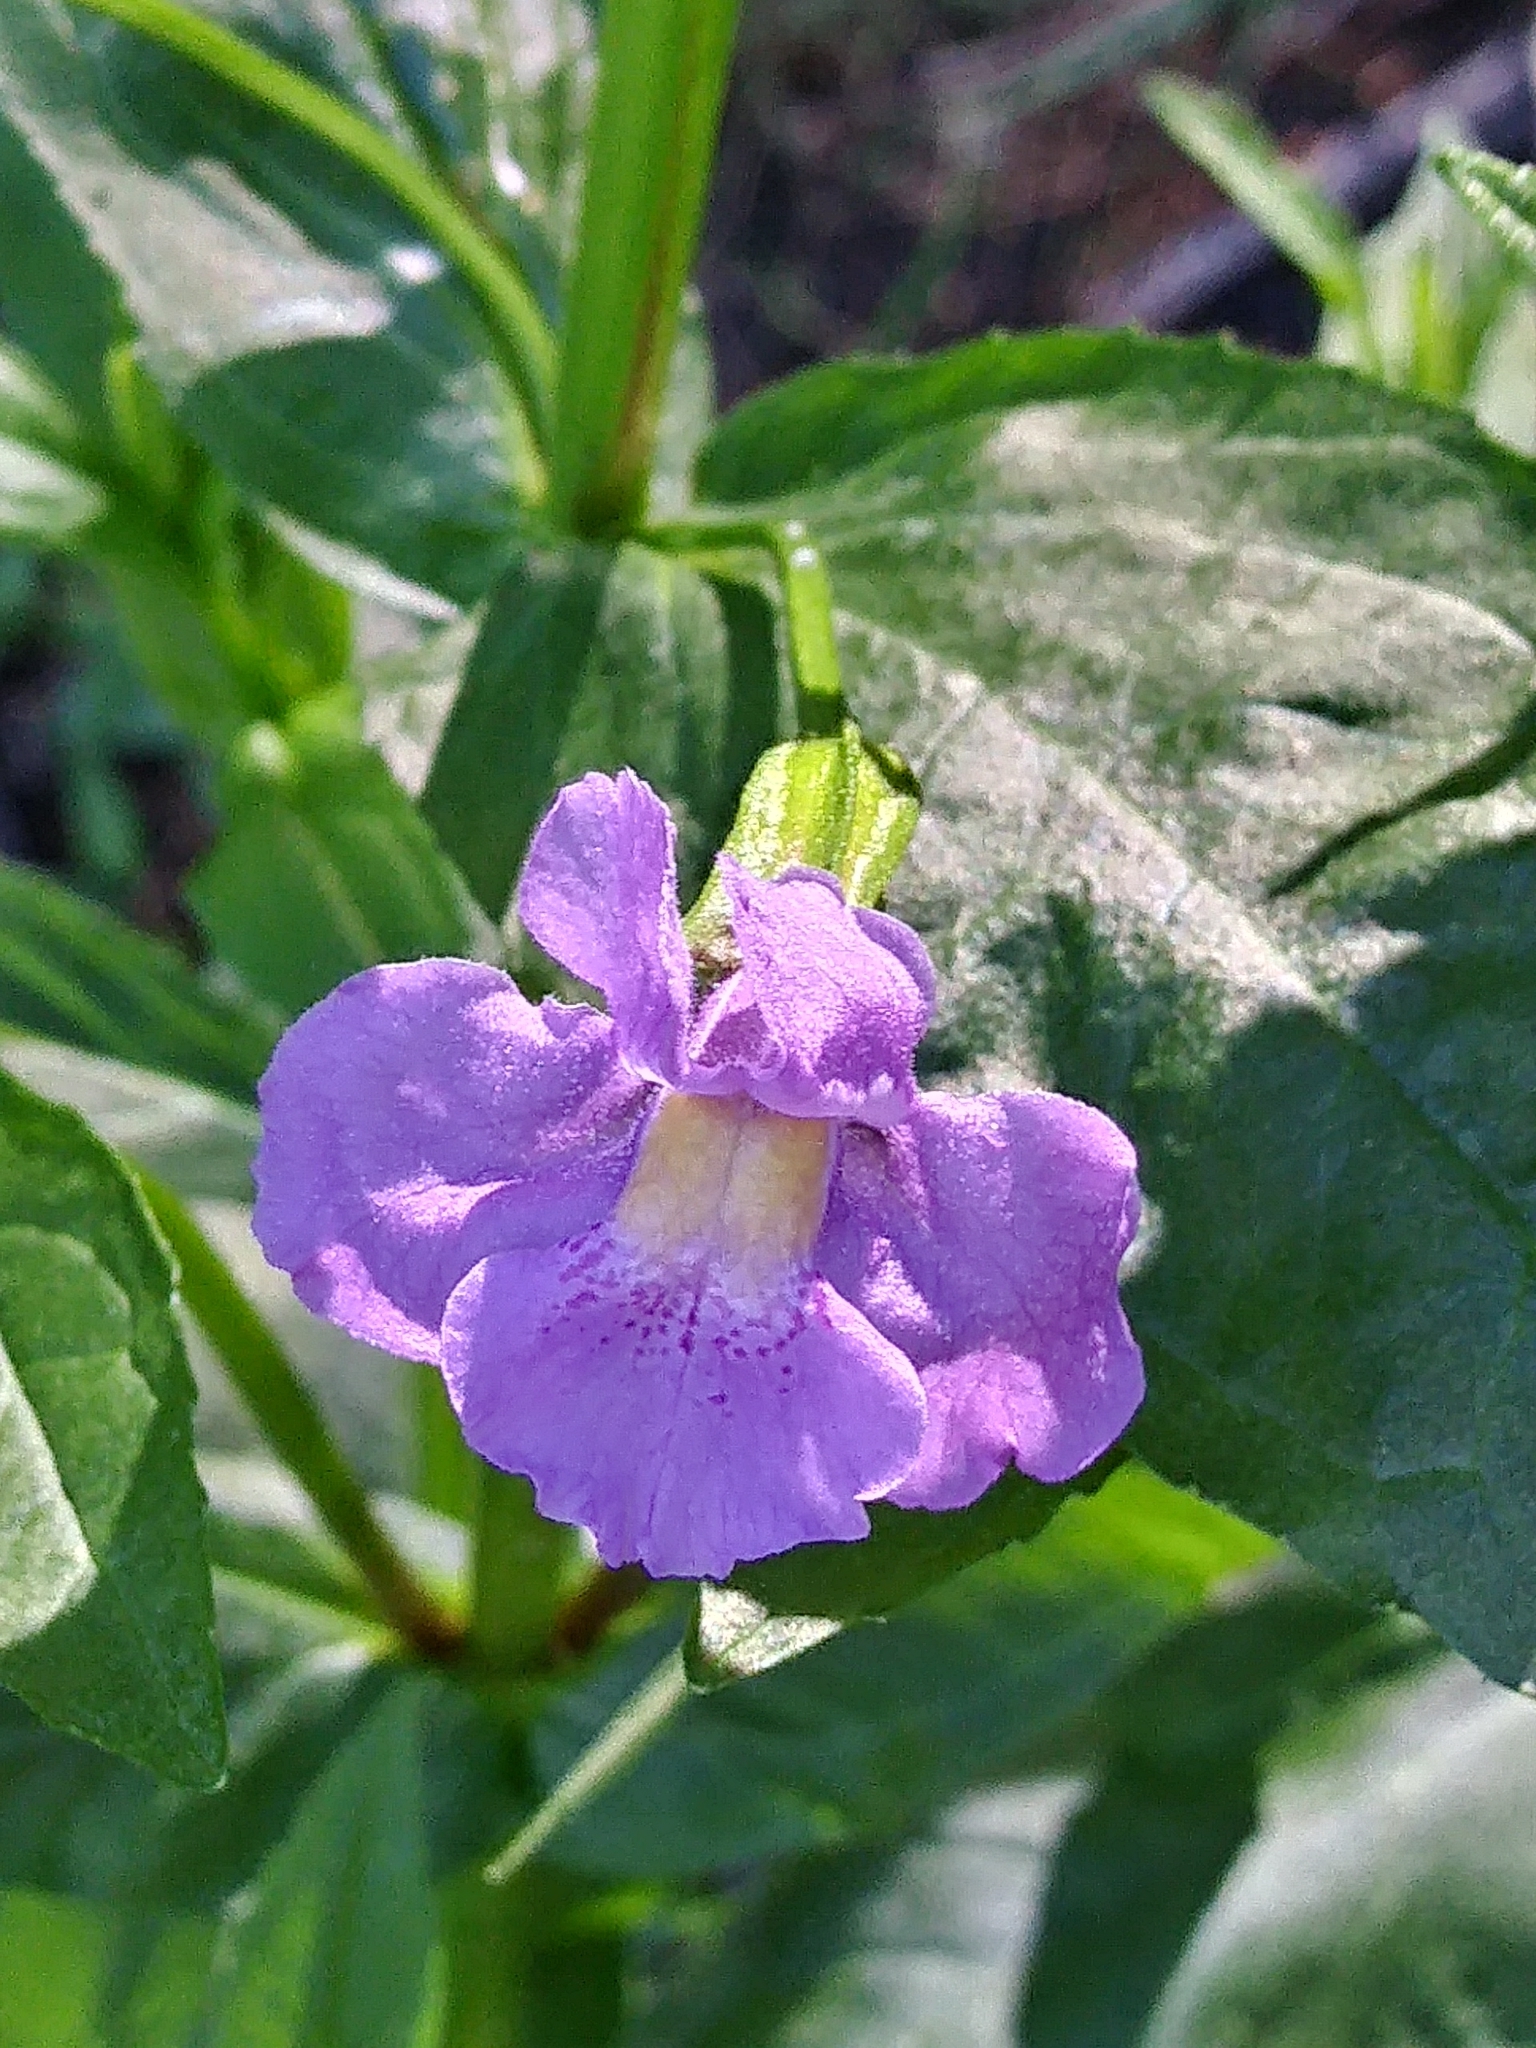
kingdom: Plantae
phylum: Tracheophyta
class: Magnoliopsida
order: Lamiales
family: Phrymaceae
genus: Mimulus
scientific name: Mimulus ringens
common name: Allegheny monkeyflower
